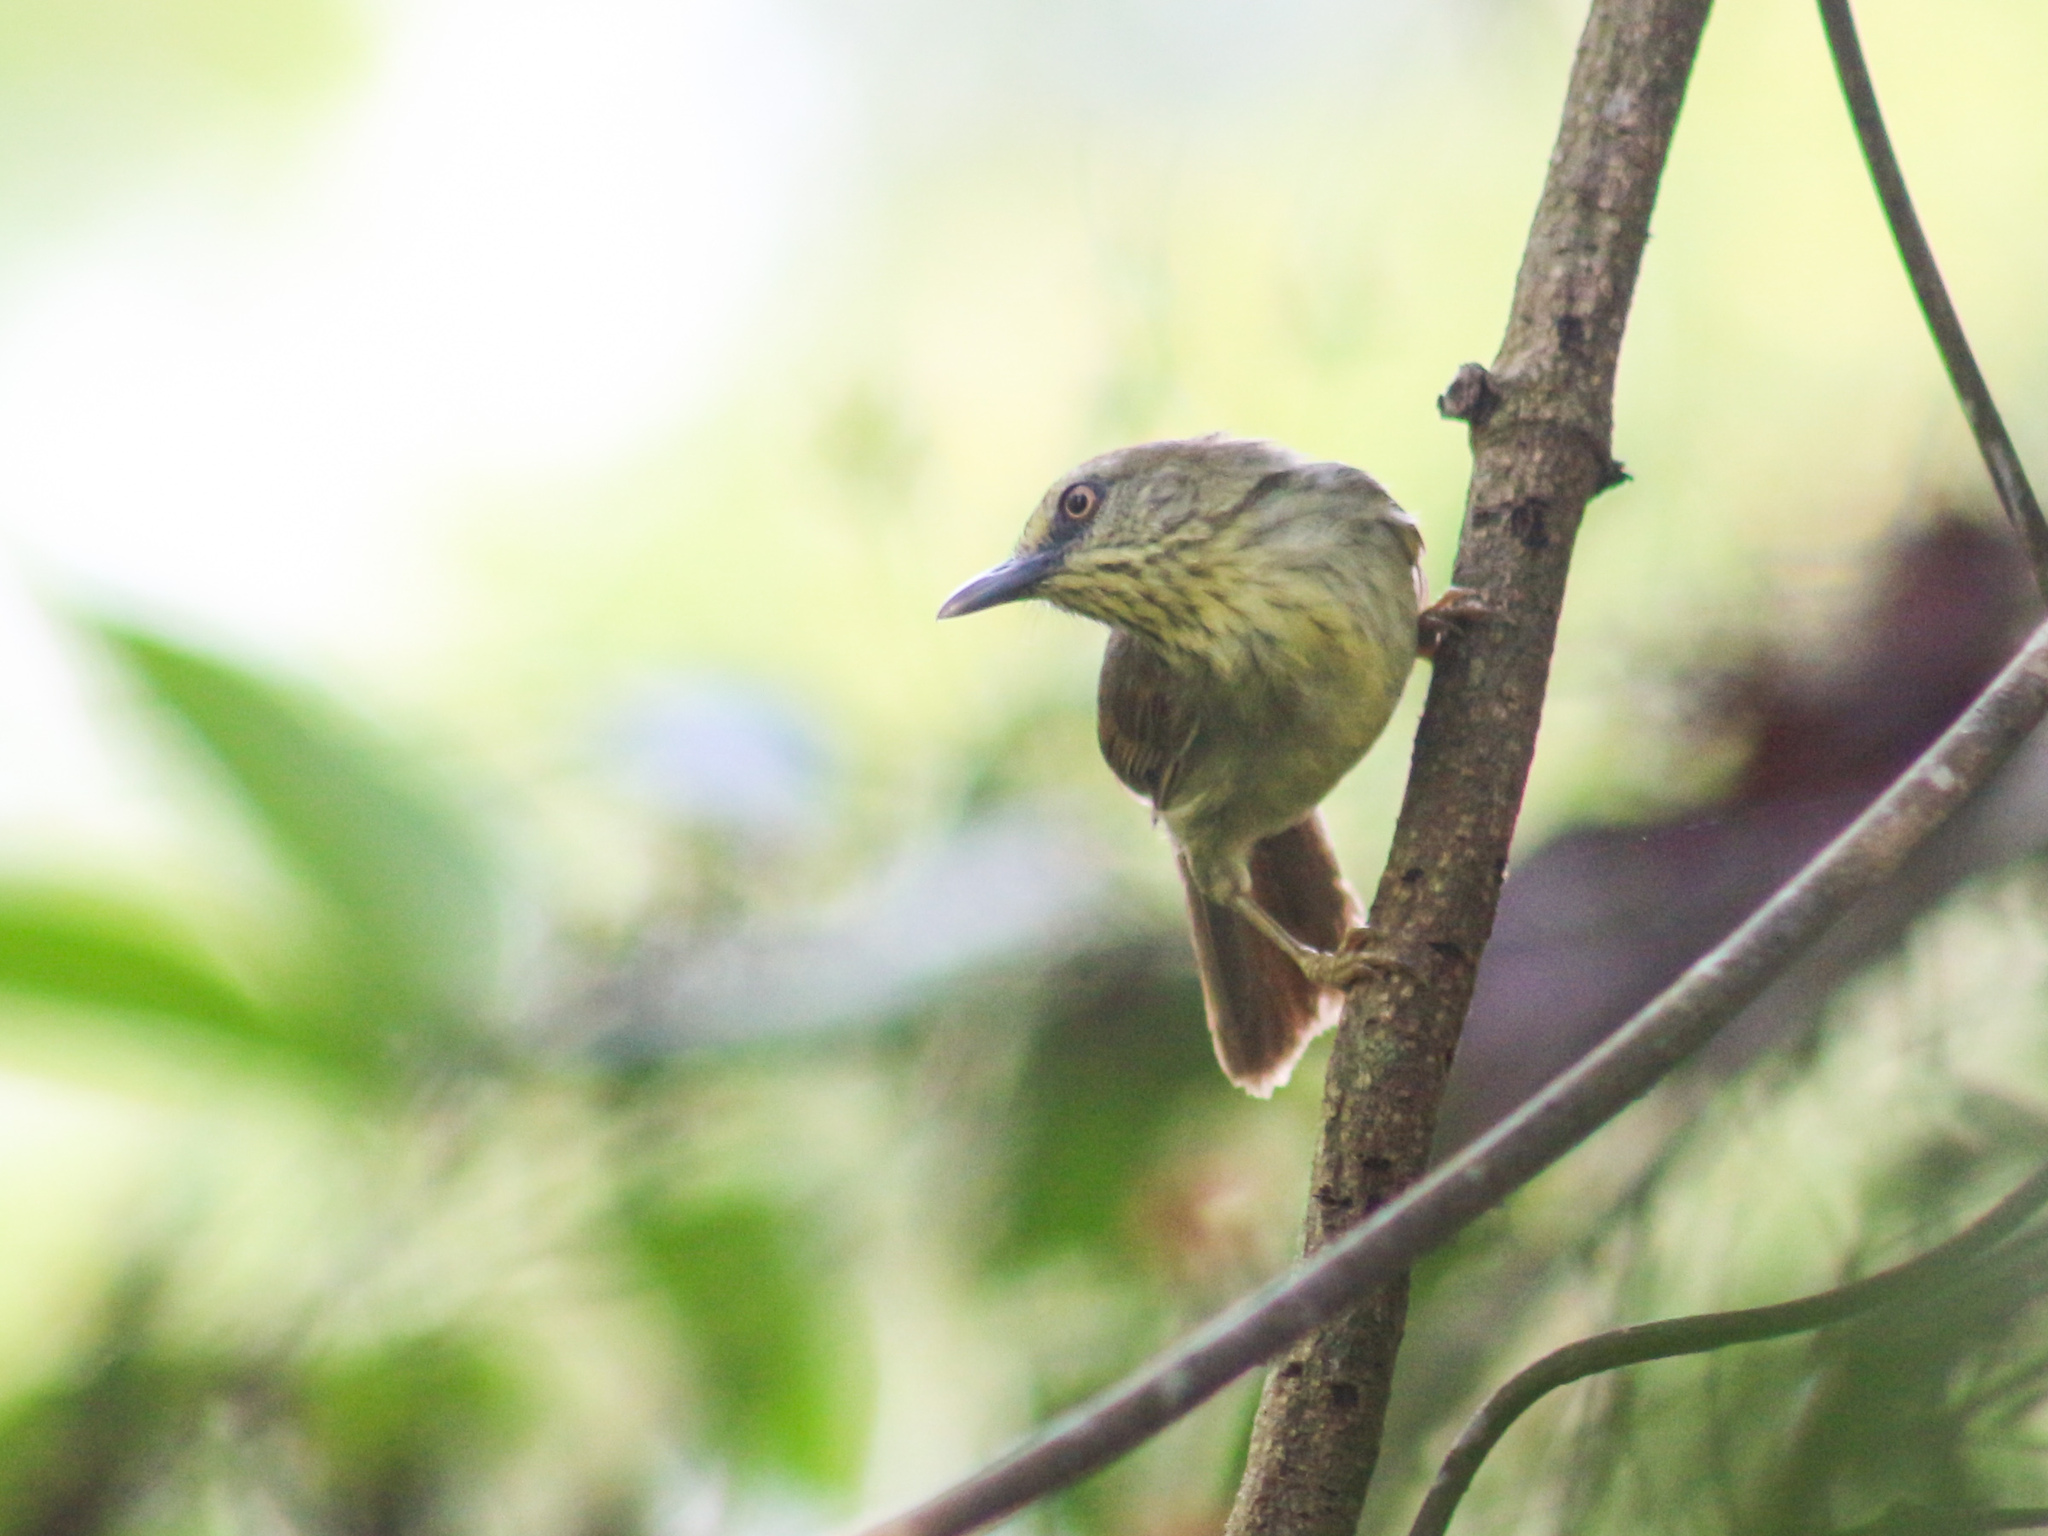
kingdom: Animalia
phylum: Chordata
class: Aves
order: Passeriformes
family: Timaliidae
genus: Macronus
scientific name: Macronus gularis
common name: Striped tit-babbler
